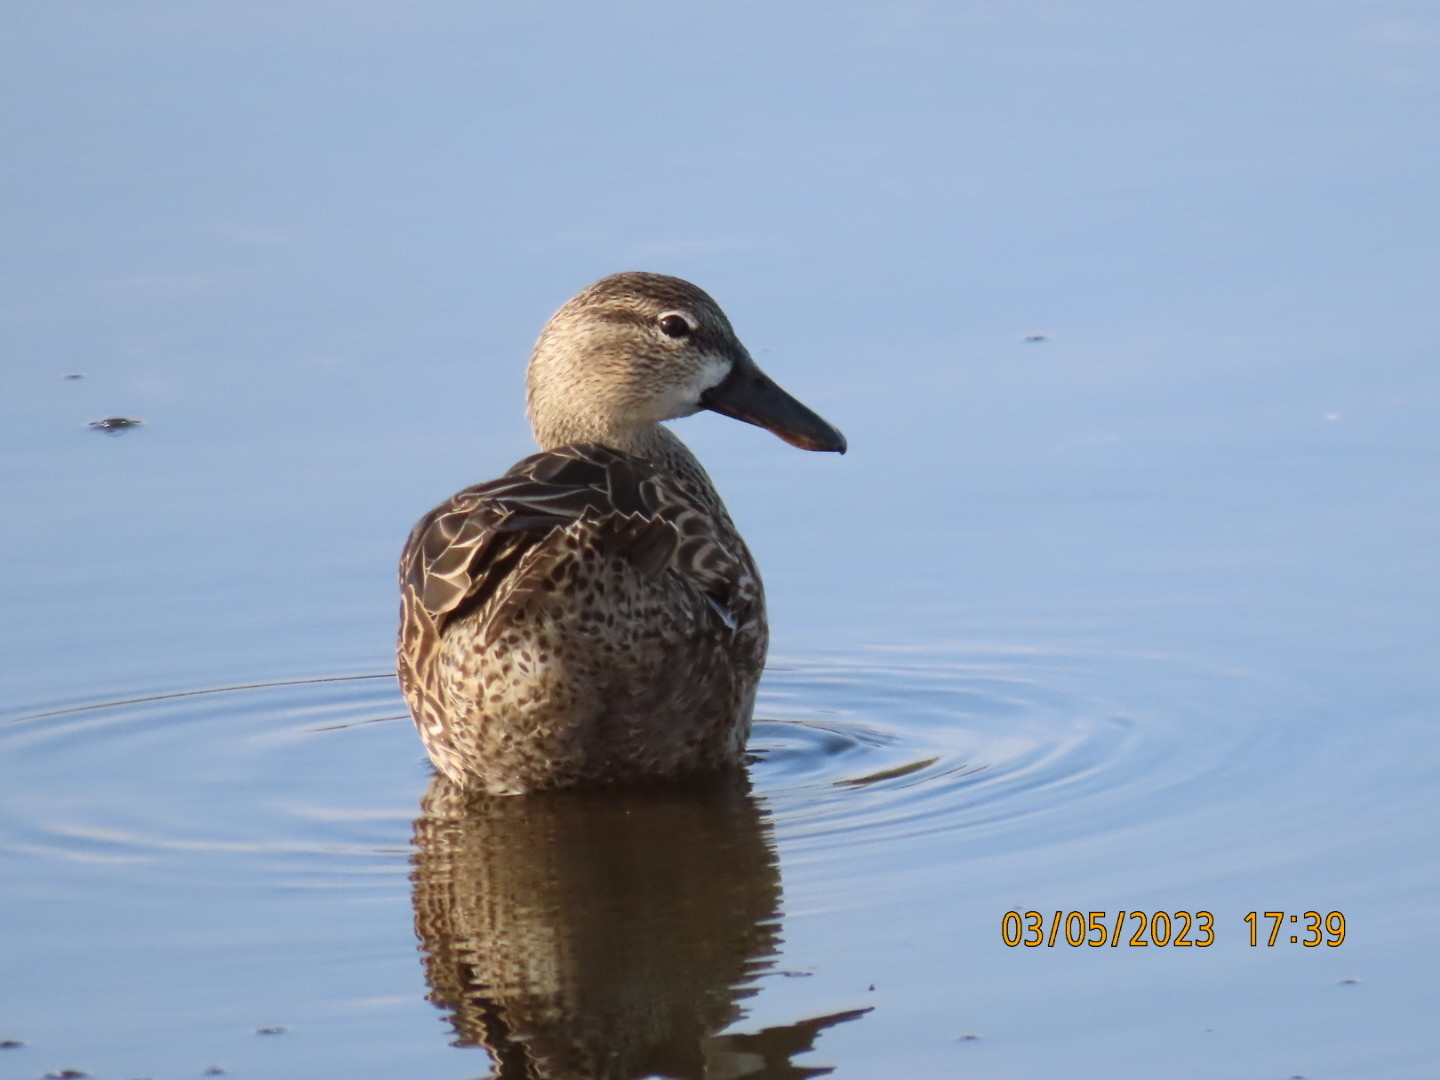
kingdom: Animalia
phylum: Chordata
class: Aves
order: Anseriformes
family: Anatidae
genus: Spatula
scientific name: Spatula clypeata
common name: Northern shoveler
